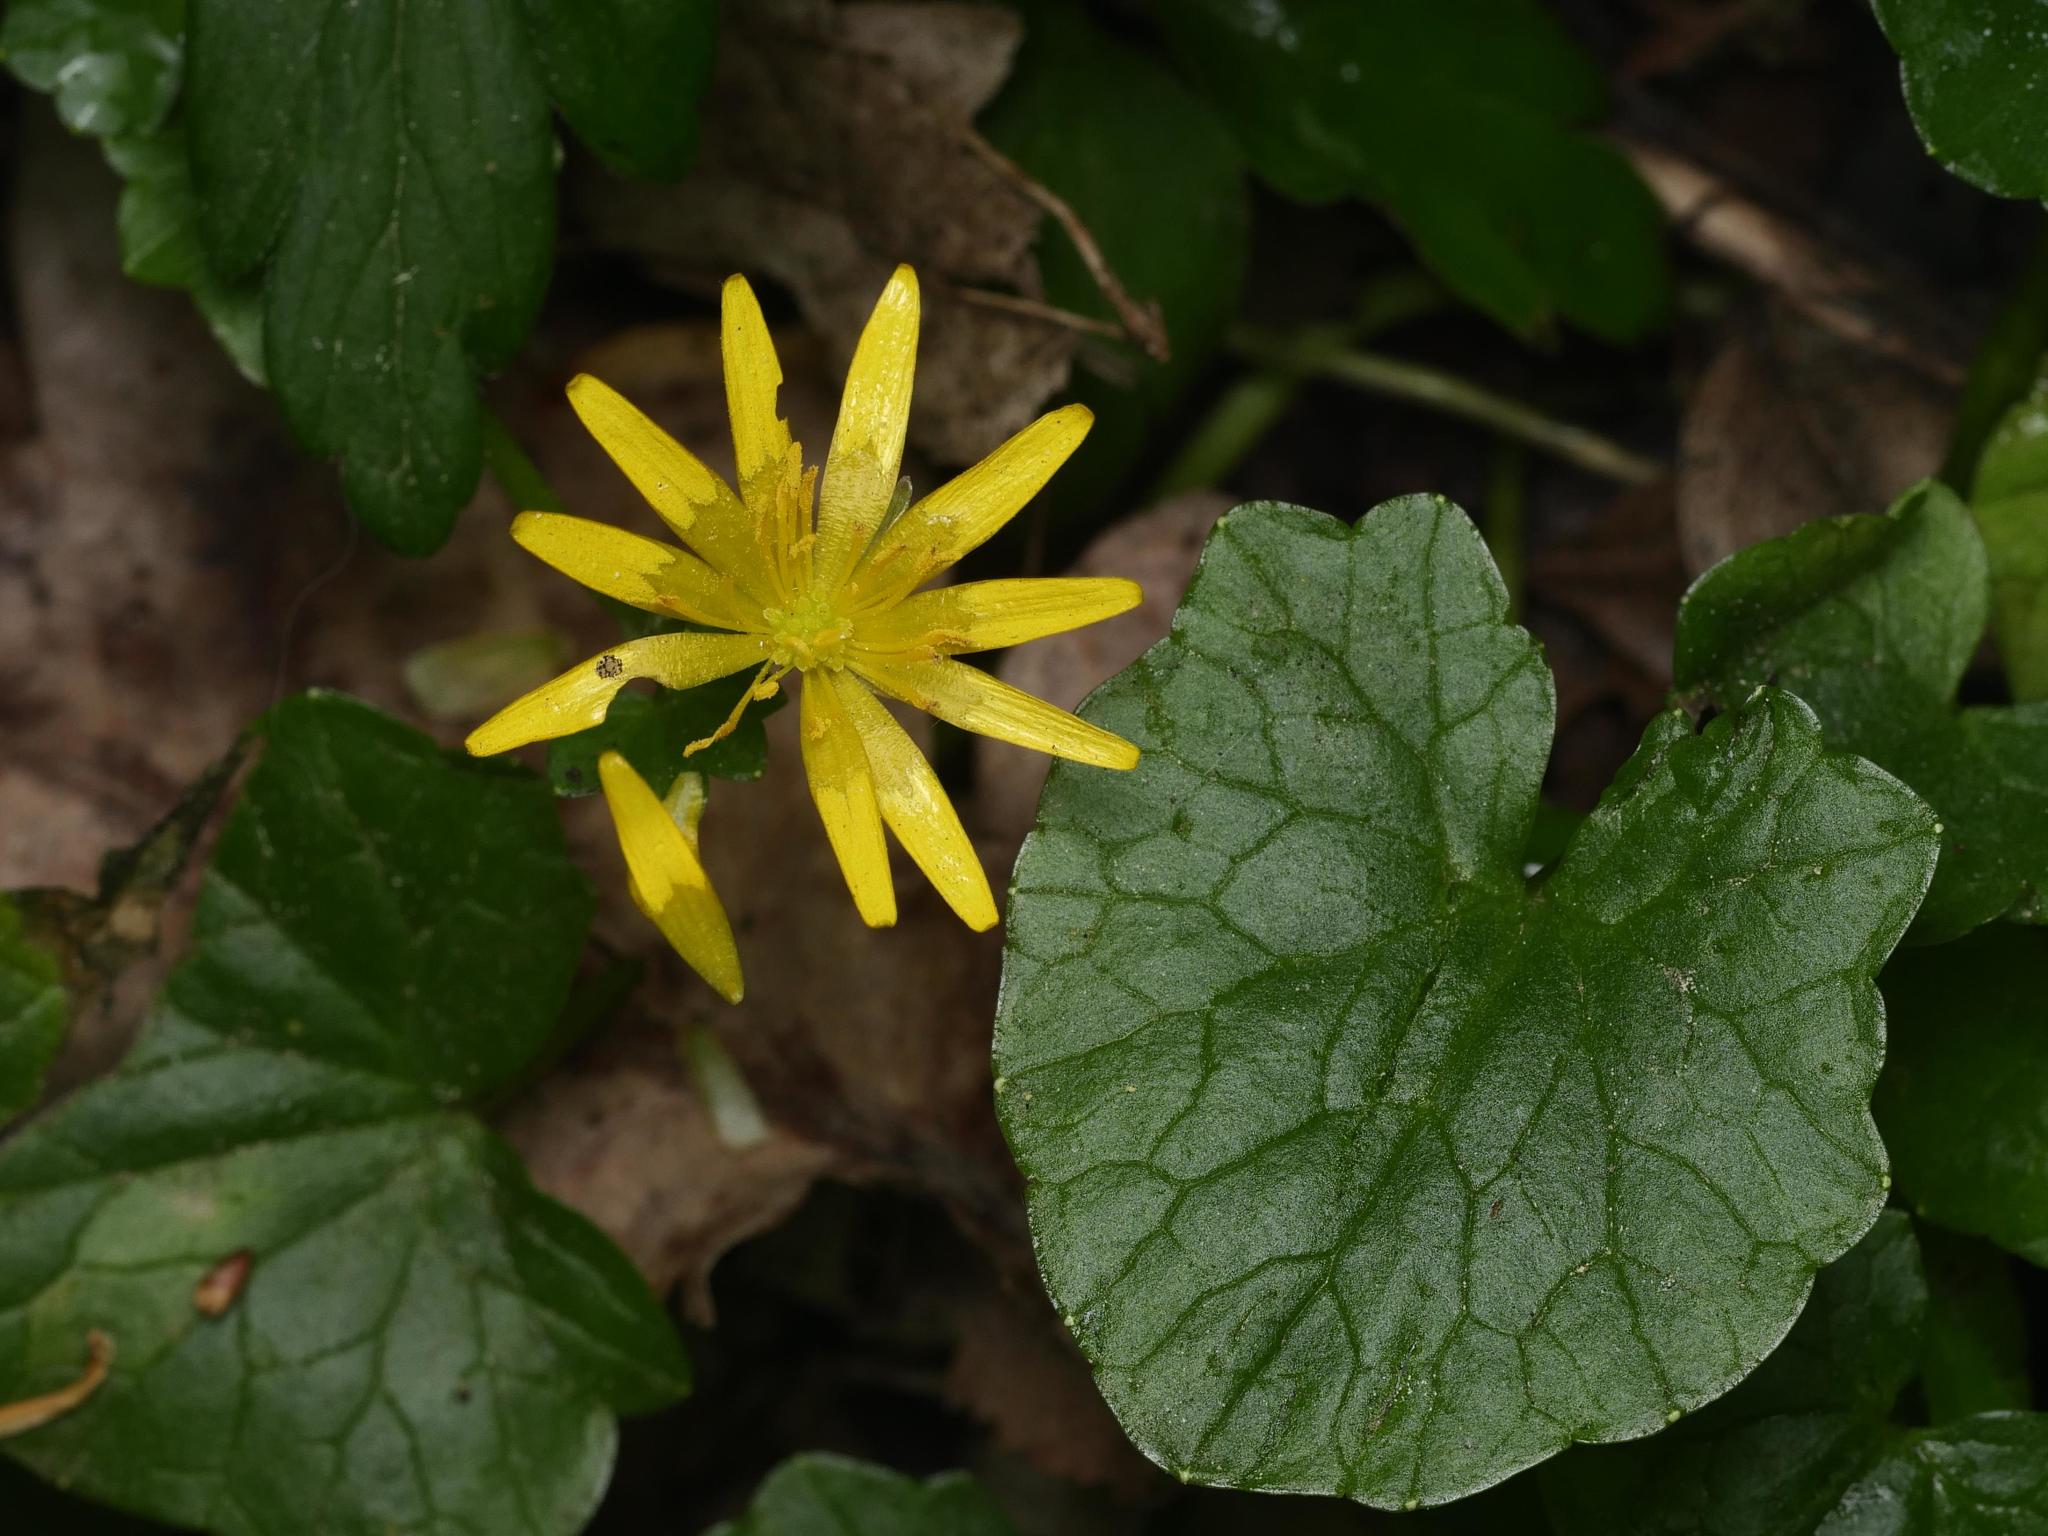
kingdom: Plantae
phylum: Tracheophyta
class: Magnoliopsida
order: Ranunculales
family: Ranunculaceae
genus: Ficaria
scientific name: Ficaria verna
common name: Lesser celandine
